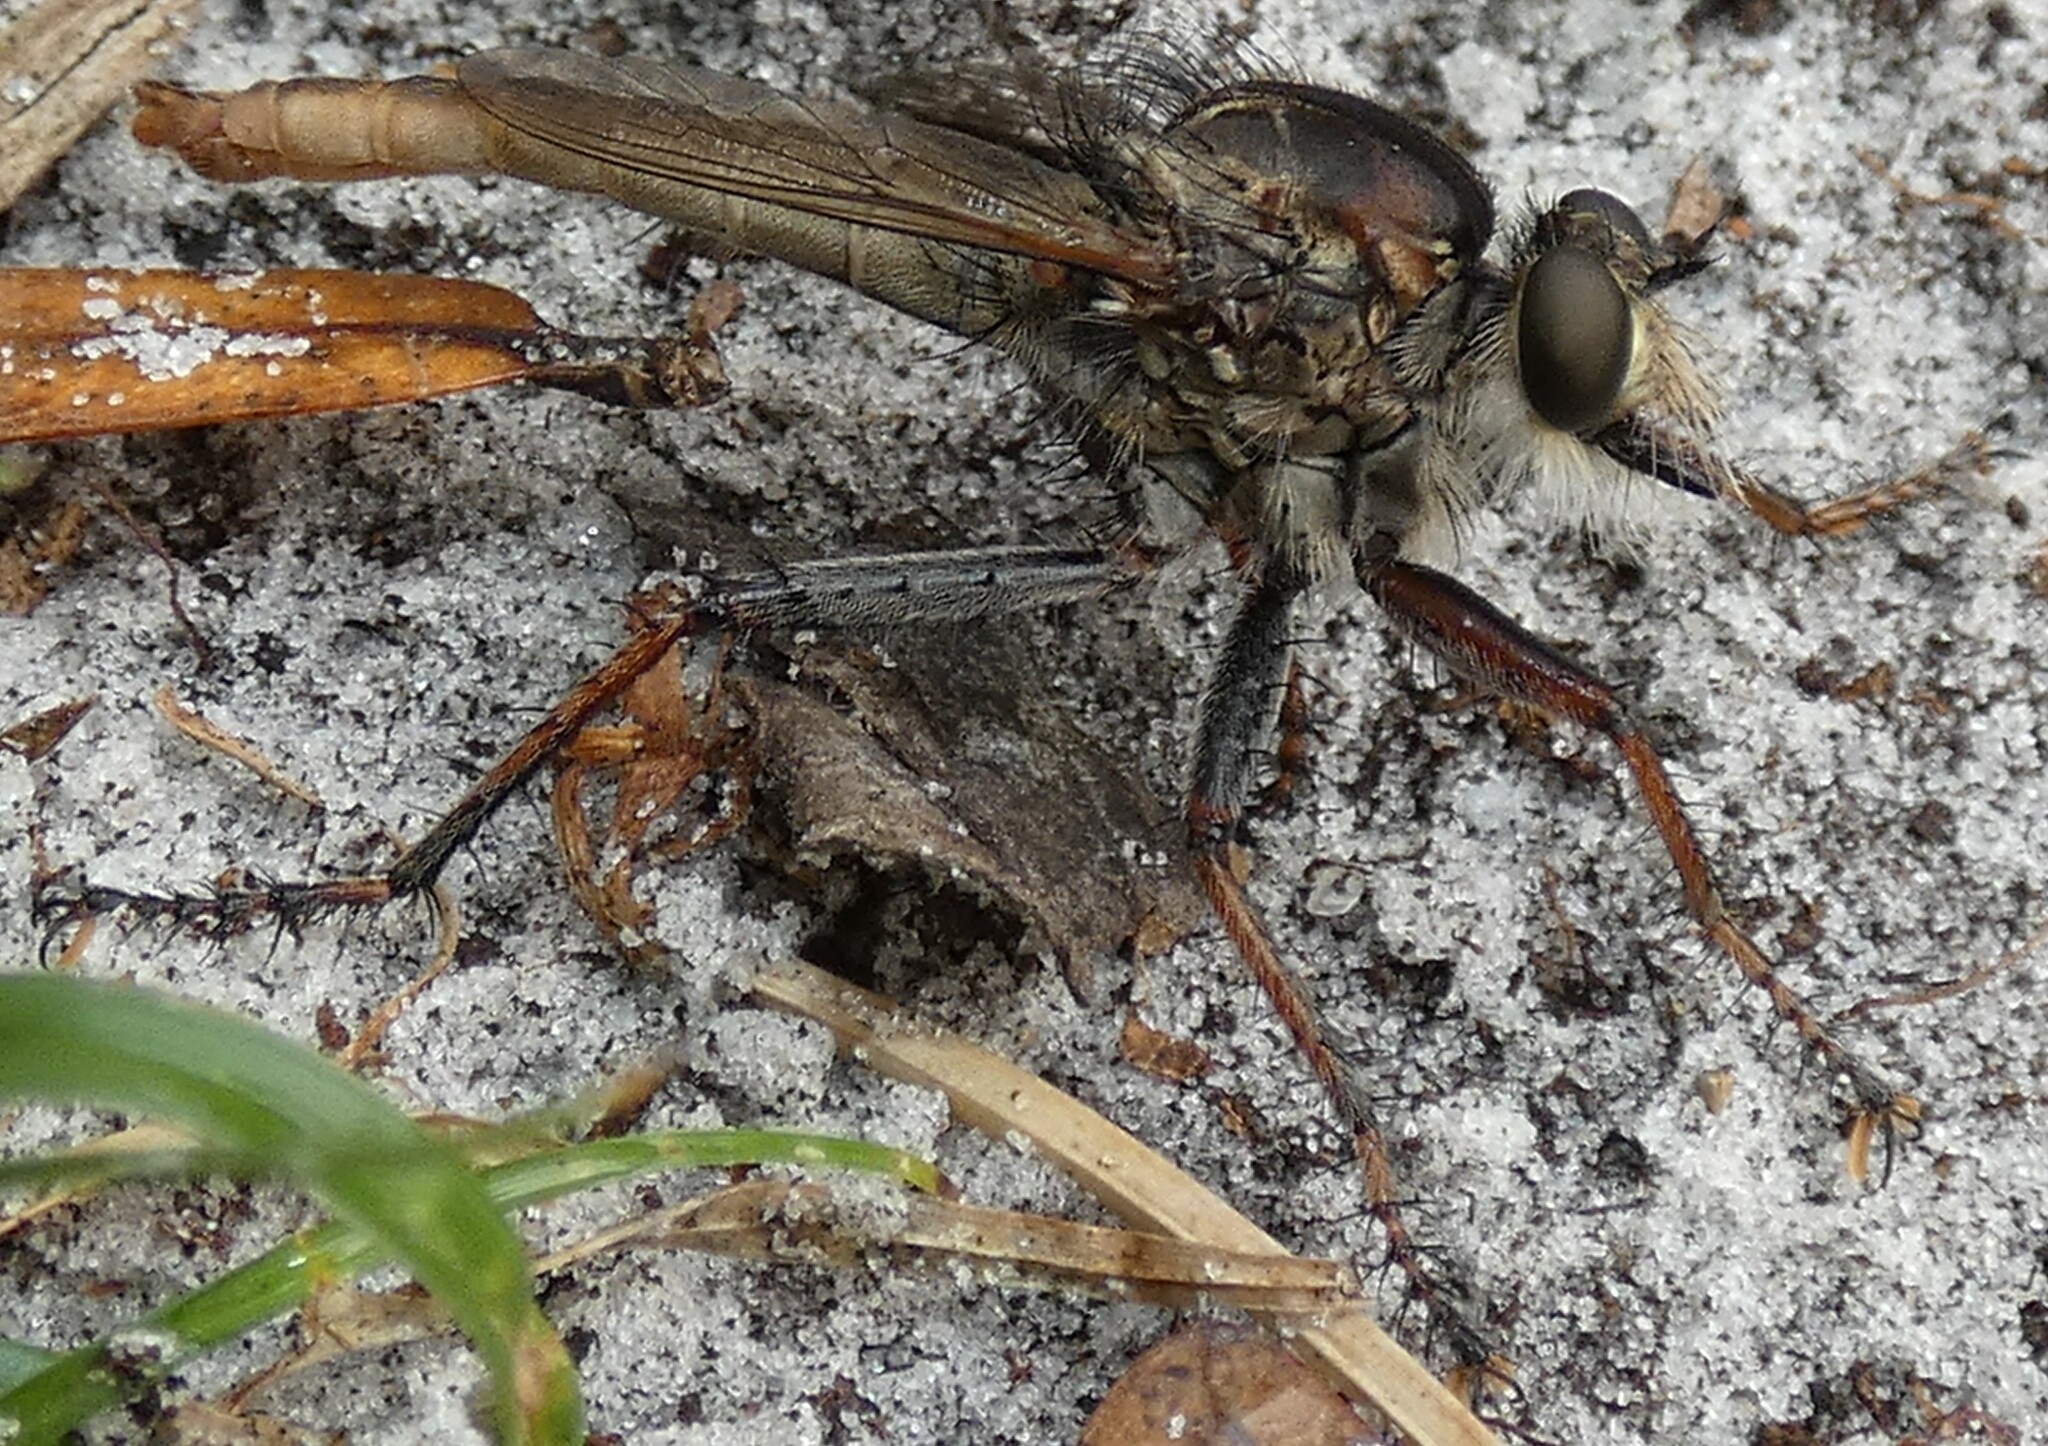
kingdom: Animalia
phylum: Arthropoda
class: Insecta
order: Diptera
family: Asilidae
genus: Proctacanthus
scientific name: Proctacanthus brevipennis
